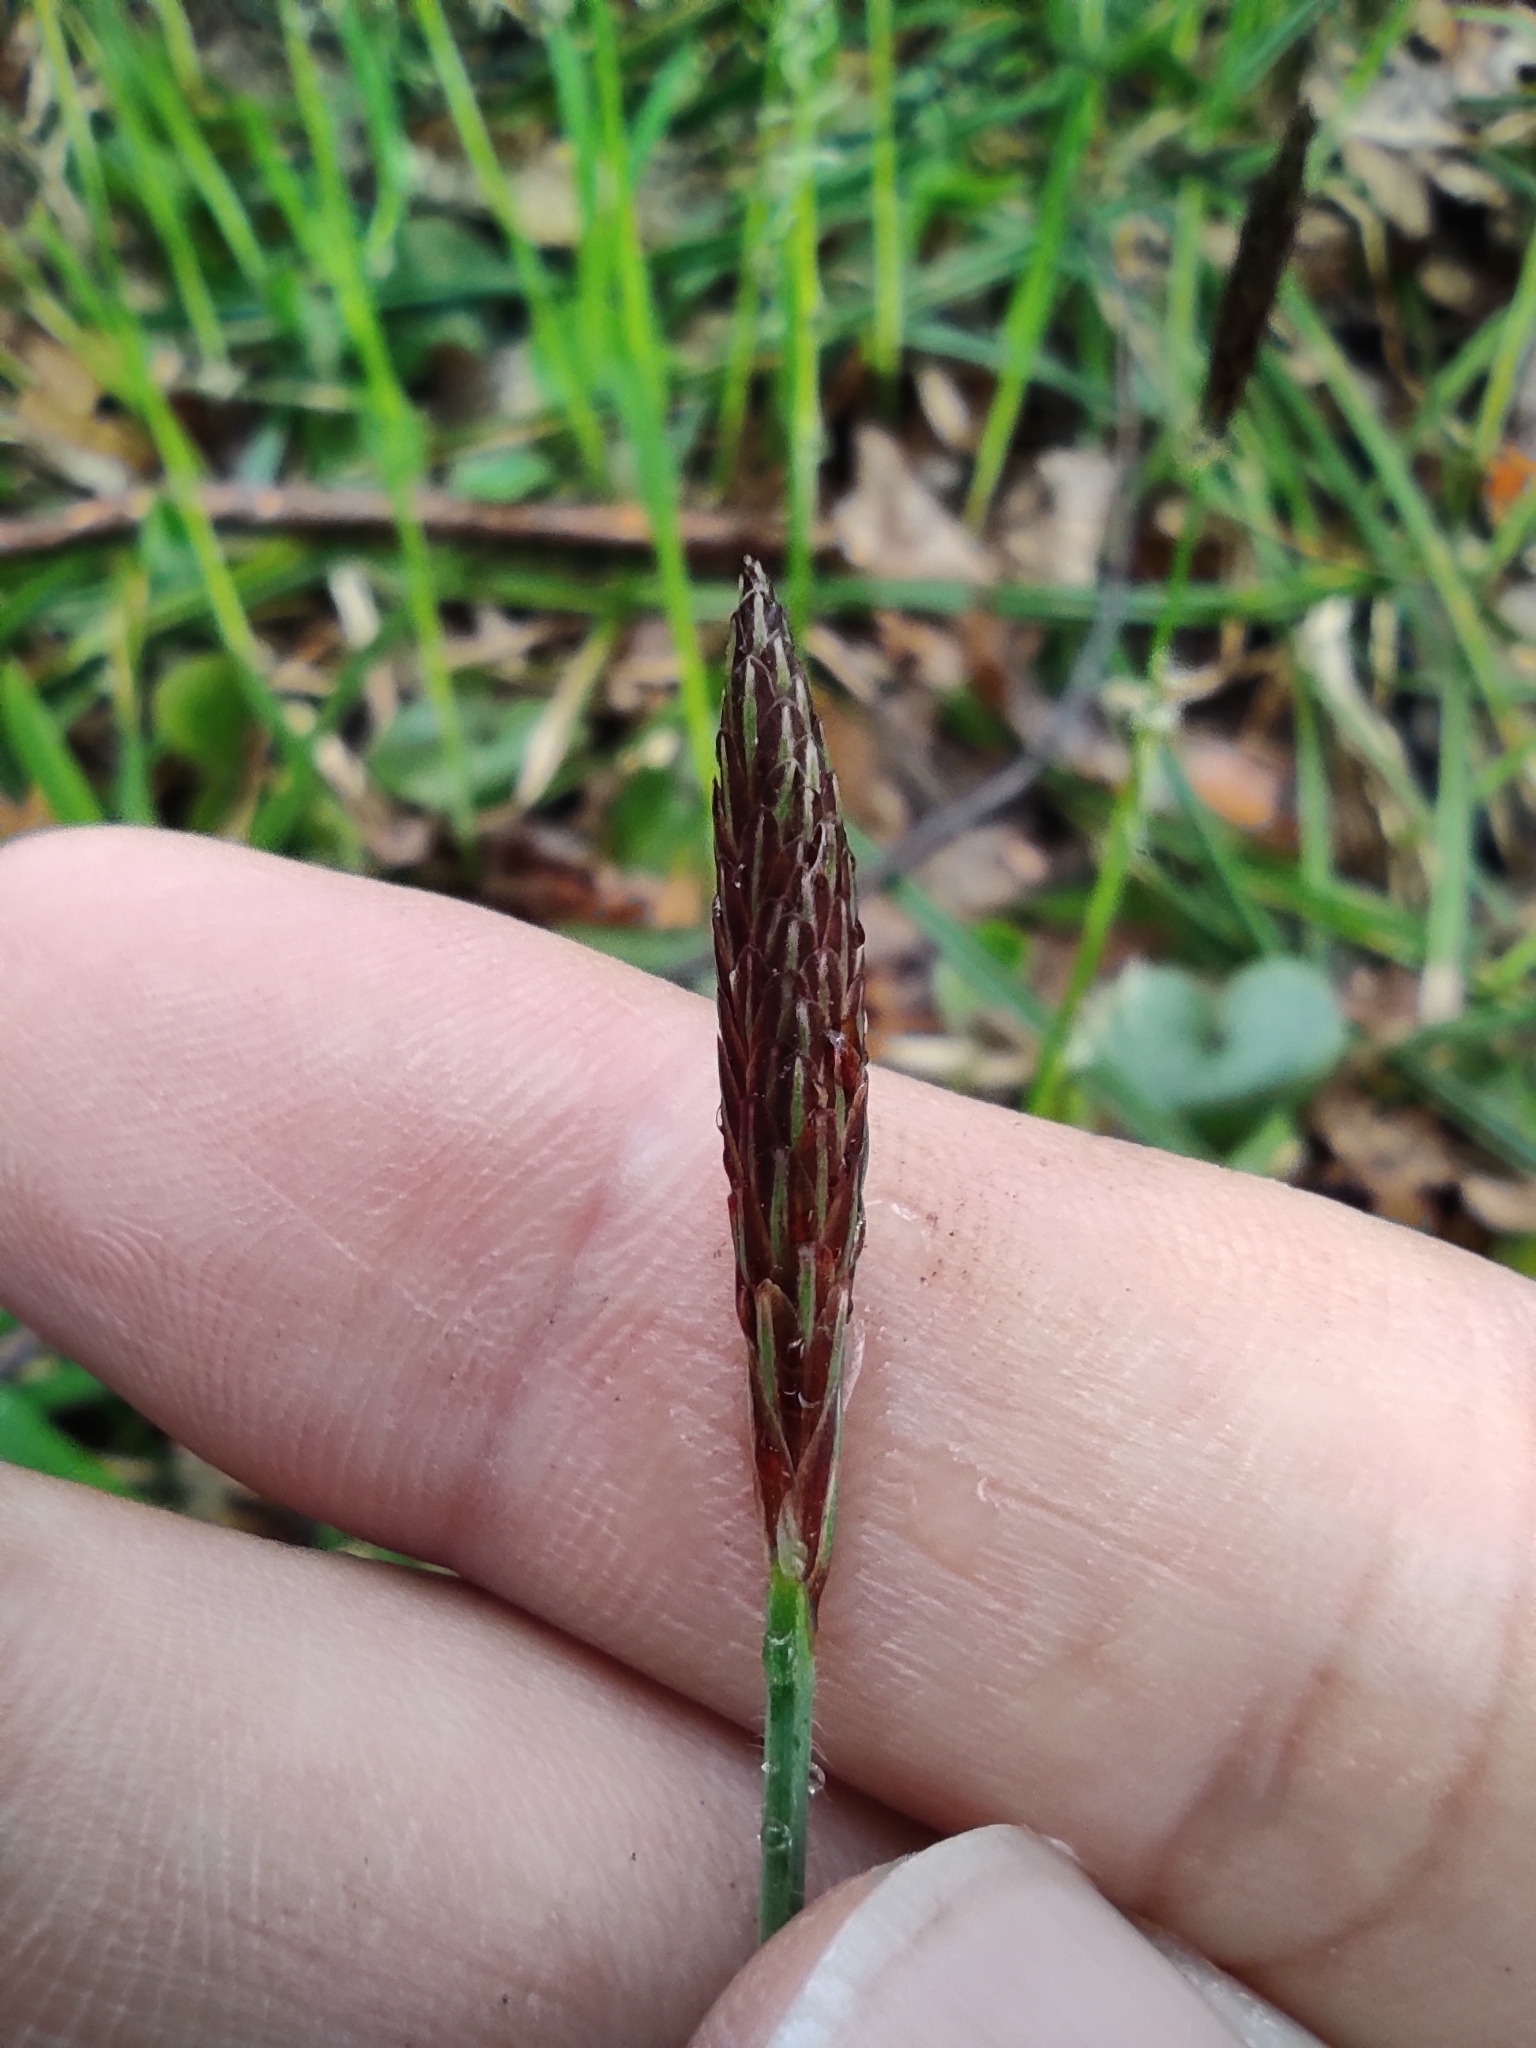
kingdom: Plantae
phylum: Tracheophyta
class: Liliopsida
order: Poales
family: Cyperaceae
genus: Carex
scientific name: Carex pilosa
